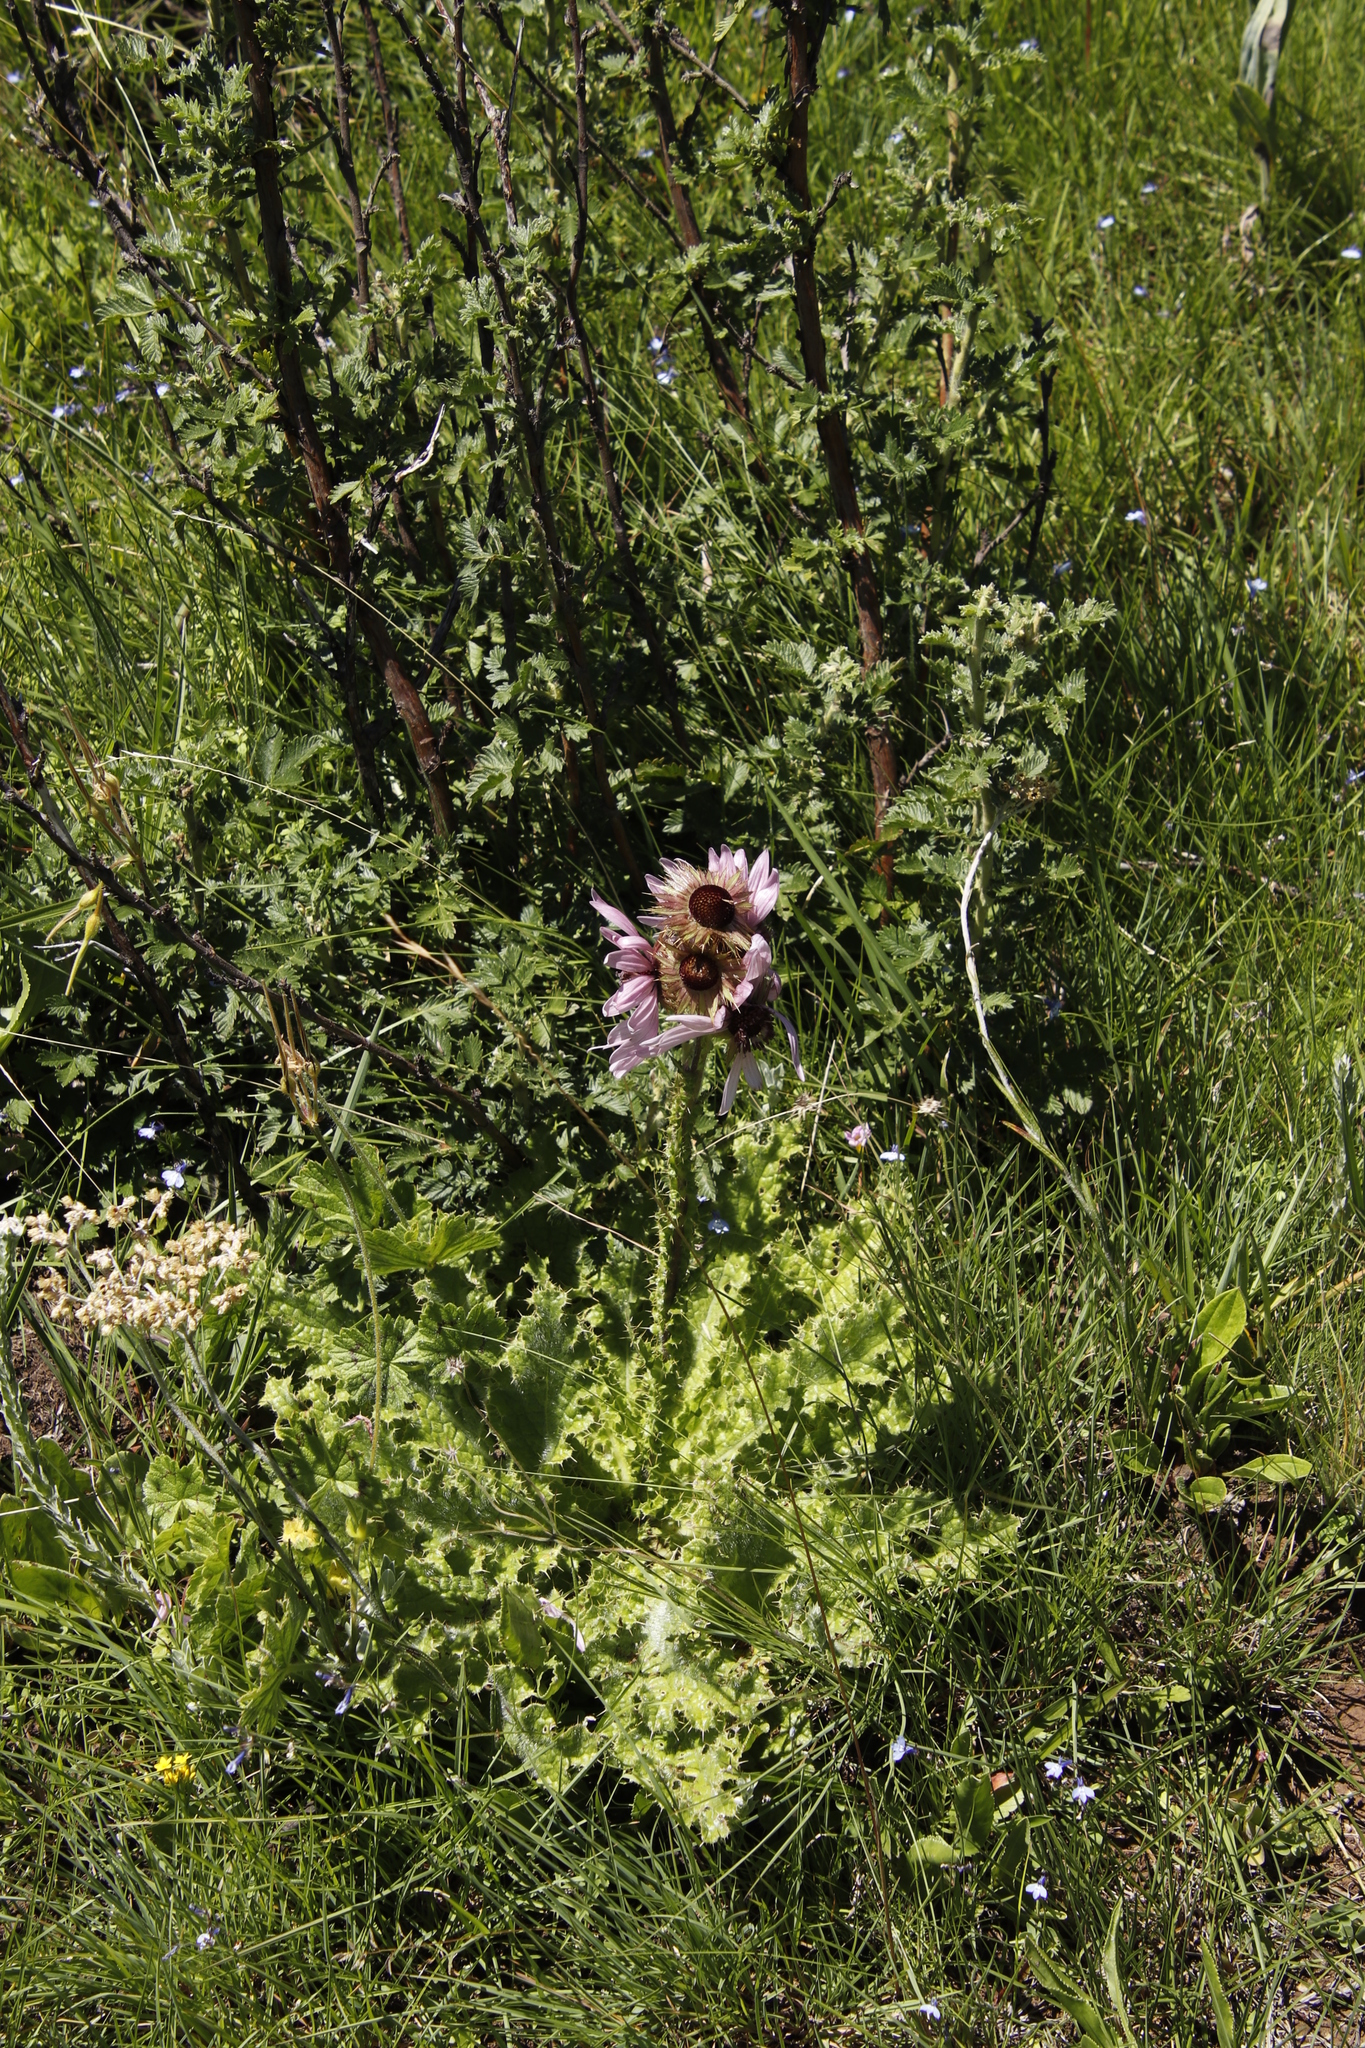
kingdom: Plantae
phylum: Tracheophyta
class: Magnoliopsida
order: Asterales
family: Asteraceae
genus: Berkheya
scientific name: Berkheya purpurea
